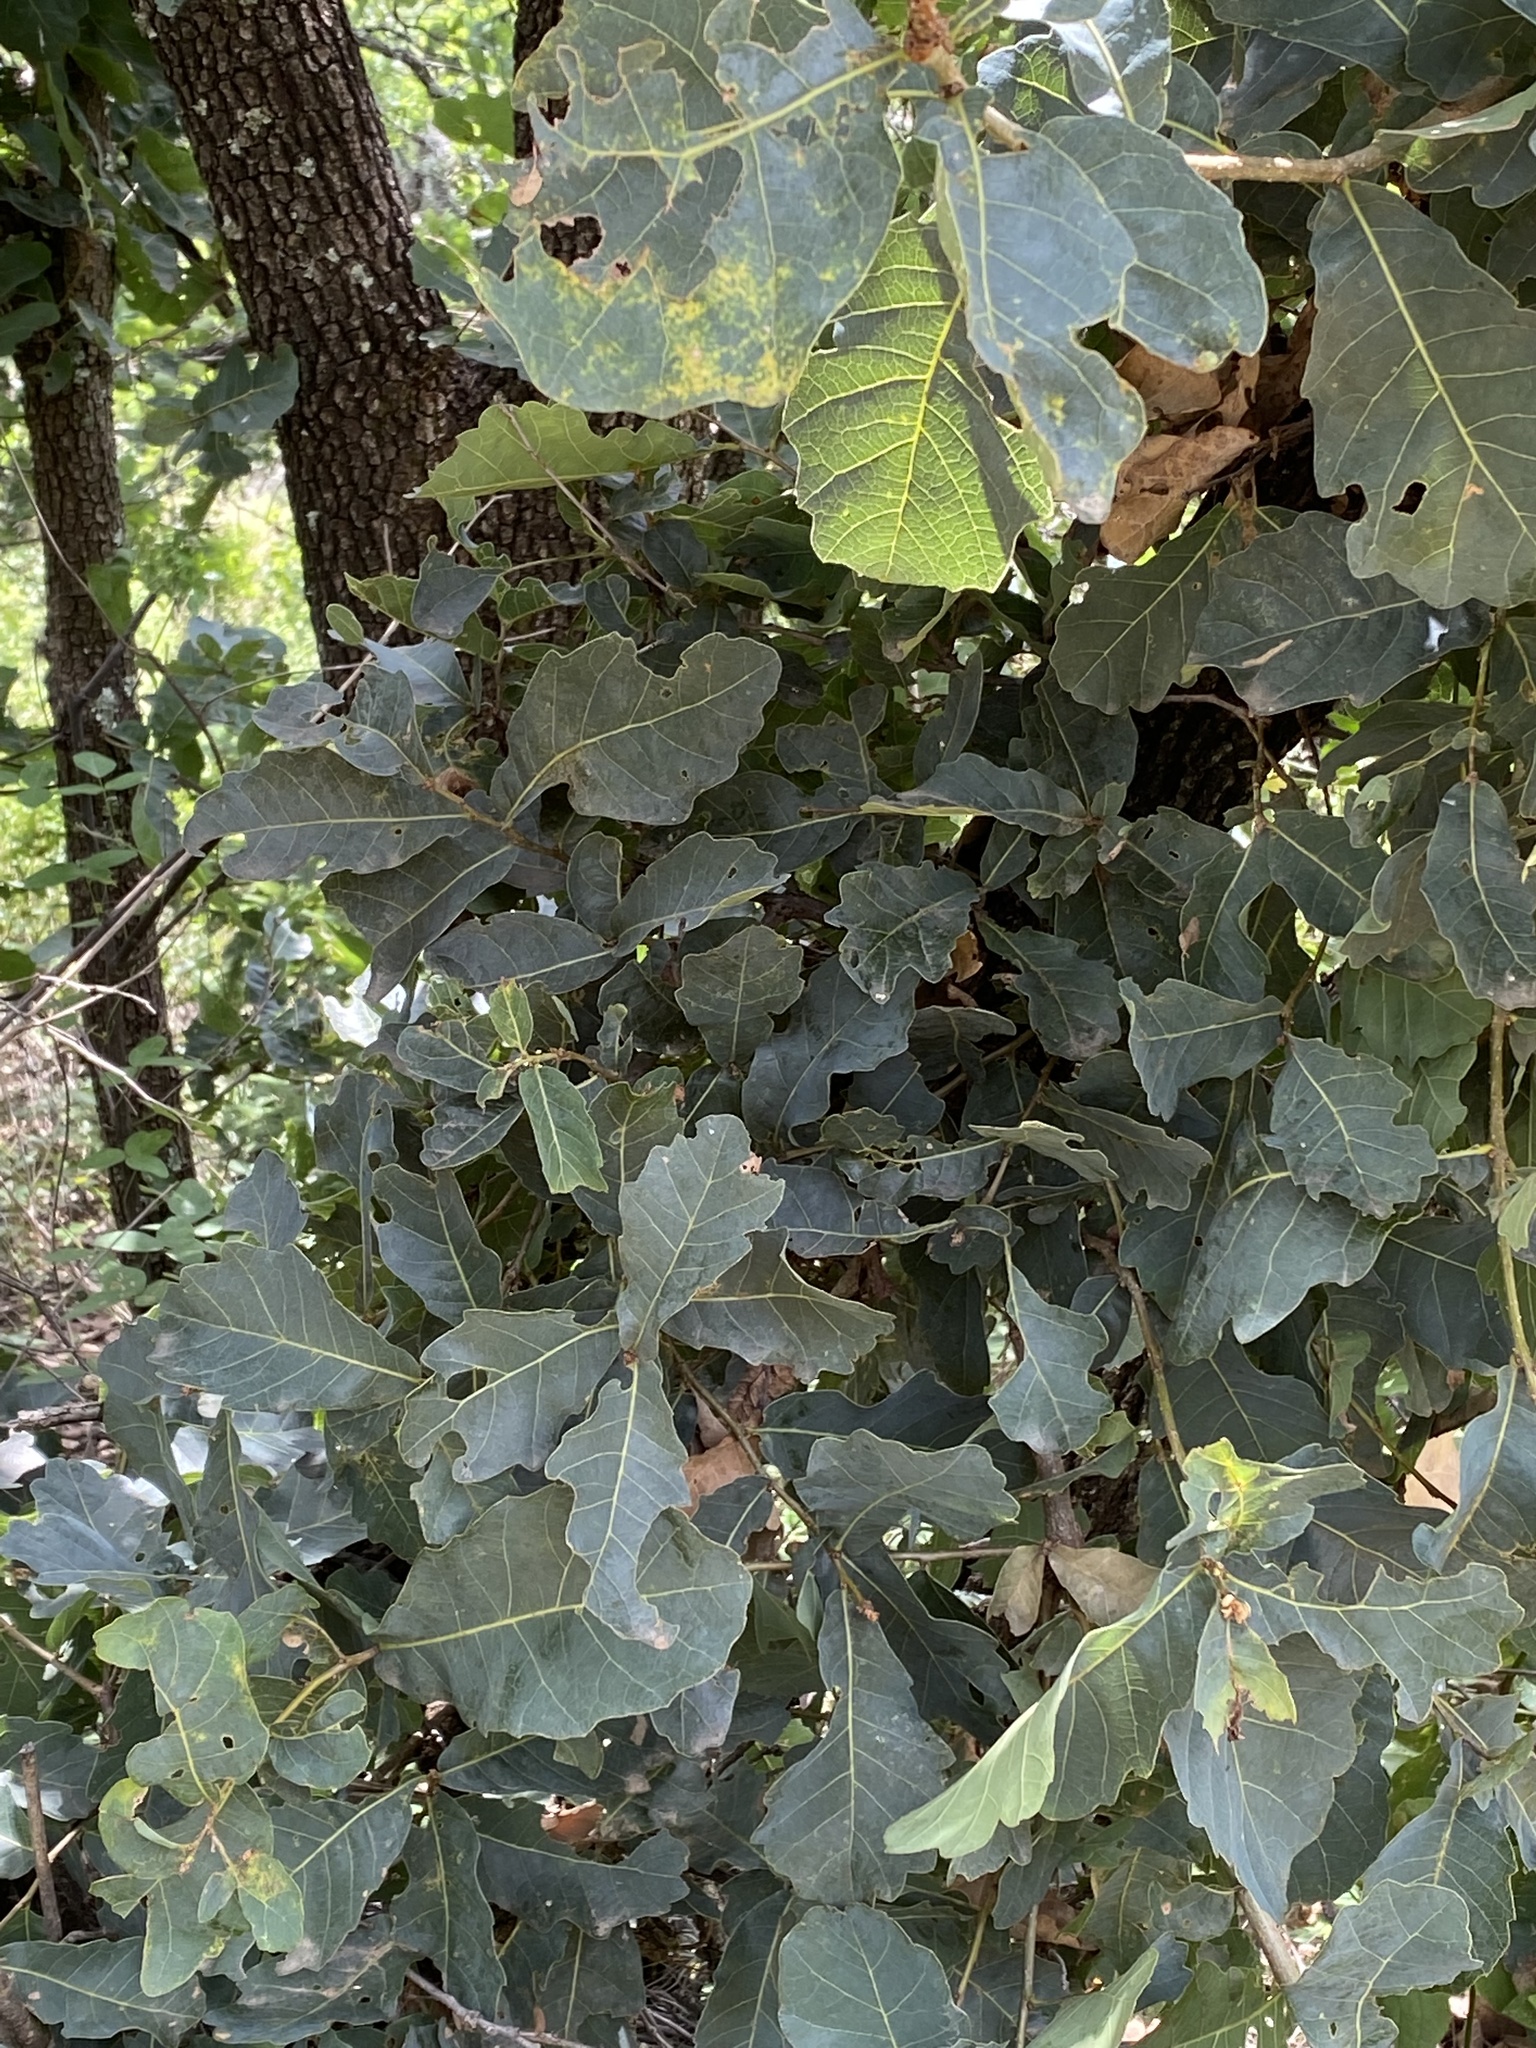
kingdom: Animalia
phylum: Arthropoda
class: Insecta
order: Hymenoptera
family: Cynipidae
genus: Striatoandricus
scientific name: Striatoandricus
